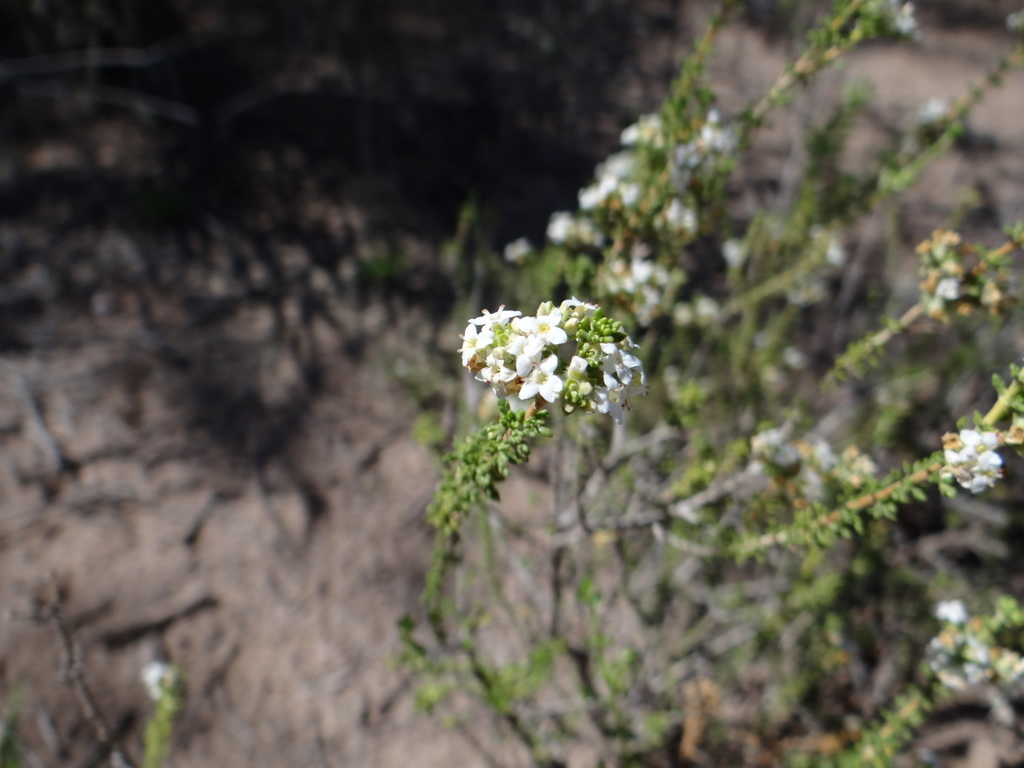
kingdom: Plantae
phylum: Tracheophyta
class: Magnoliopsida
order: Lamiales
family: Verbenaceae
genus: Acantholippia
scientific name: Acantholippia seriphioides
